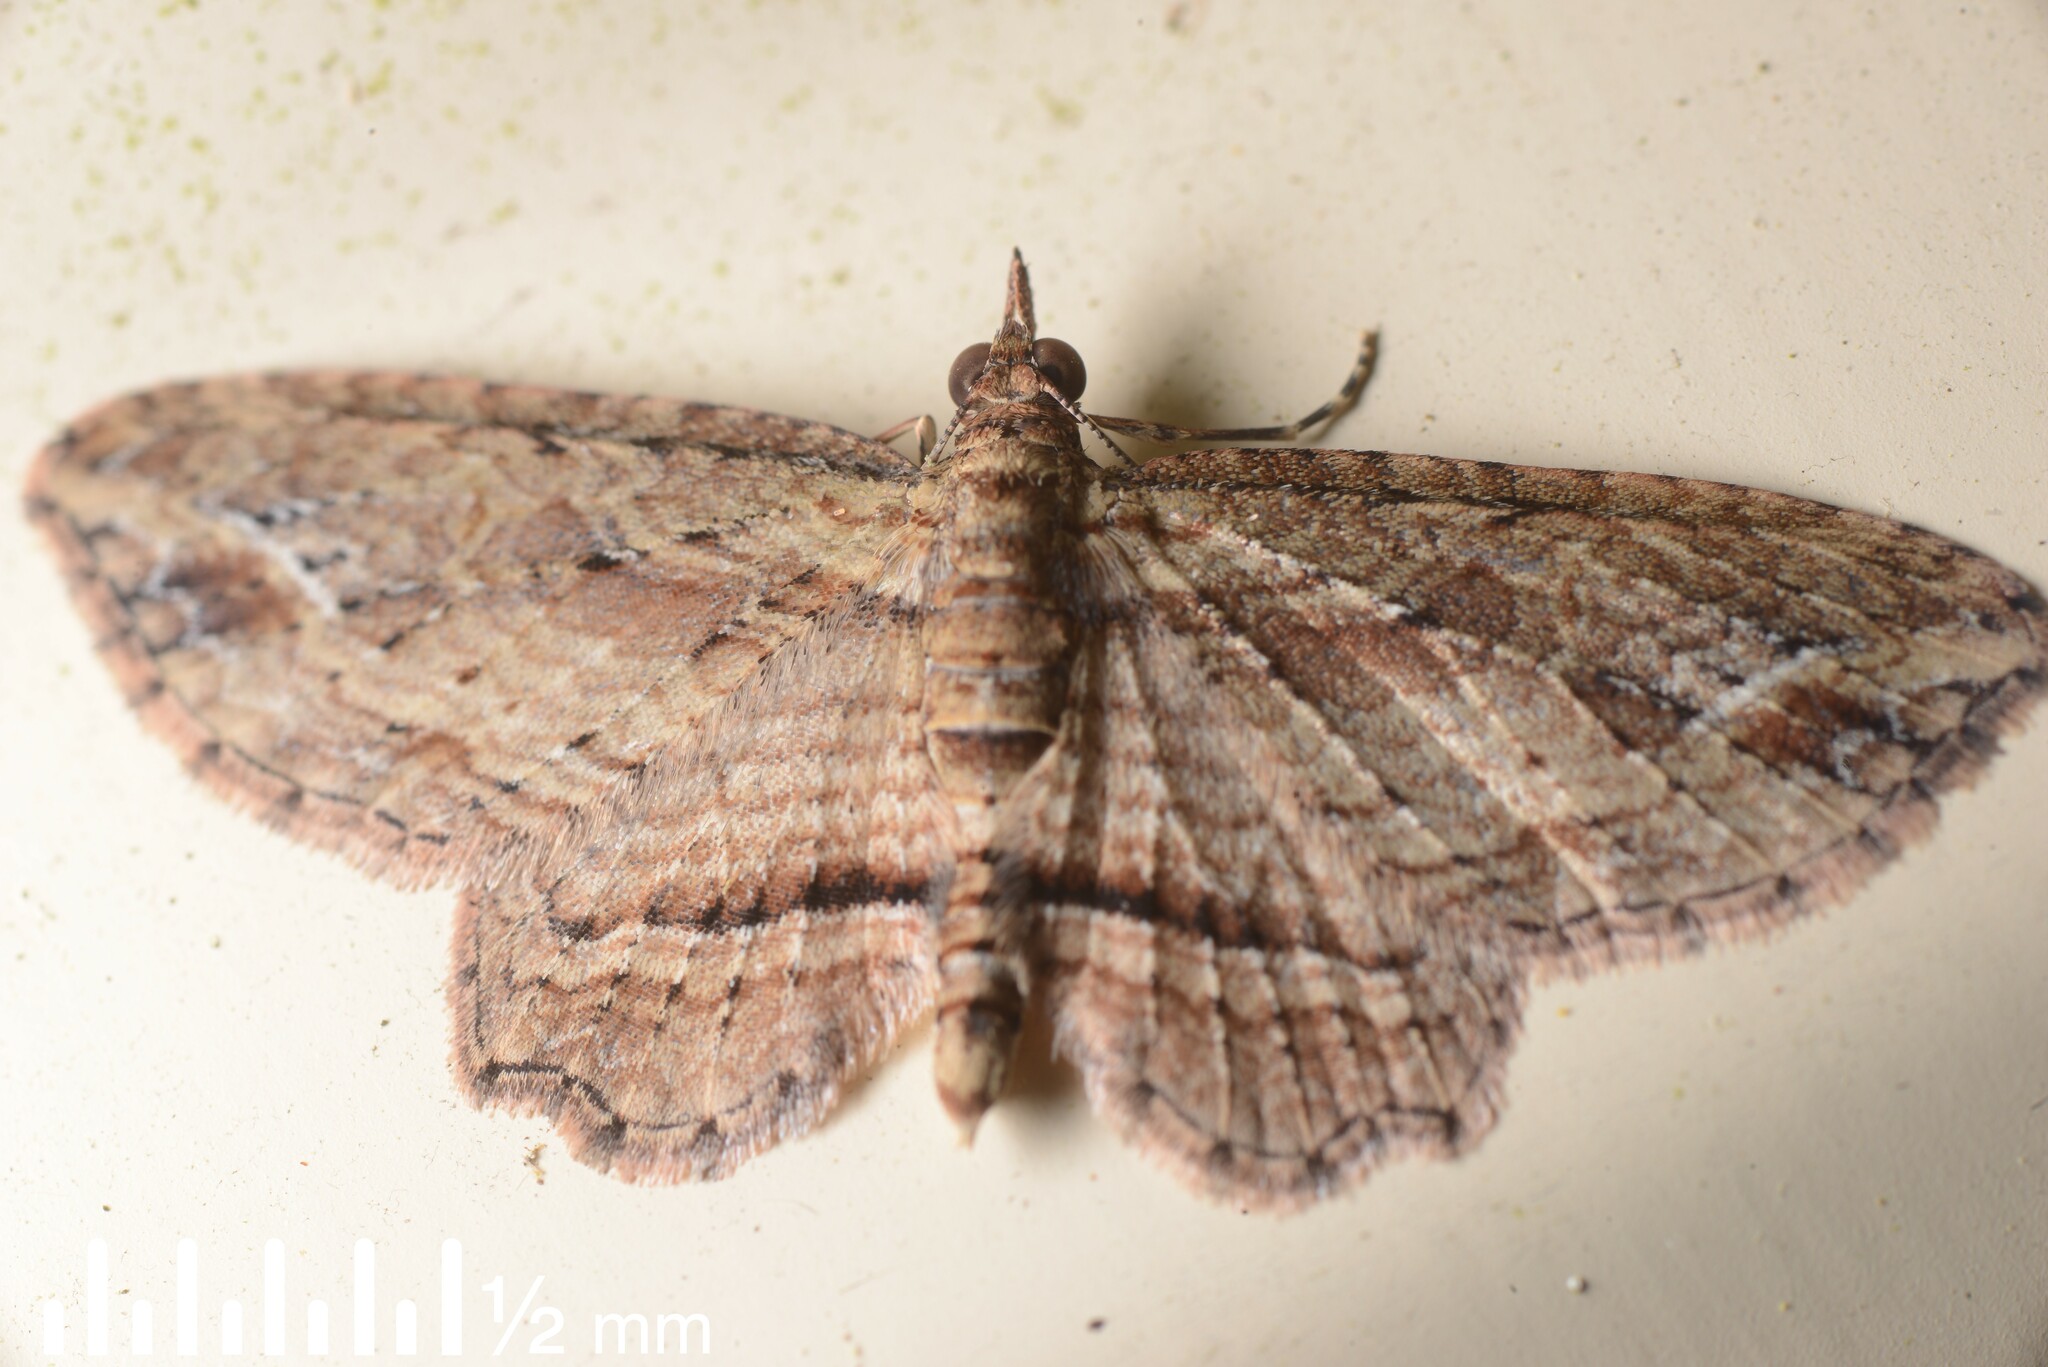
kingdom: Animalia
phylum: Arthropoda
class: Insecta
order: Lepidoptera
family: Geometridae
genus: Chloroclystis
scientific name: Chloroclystis filata
